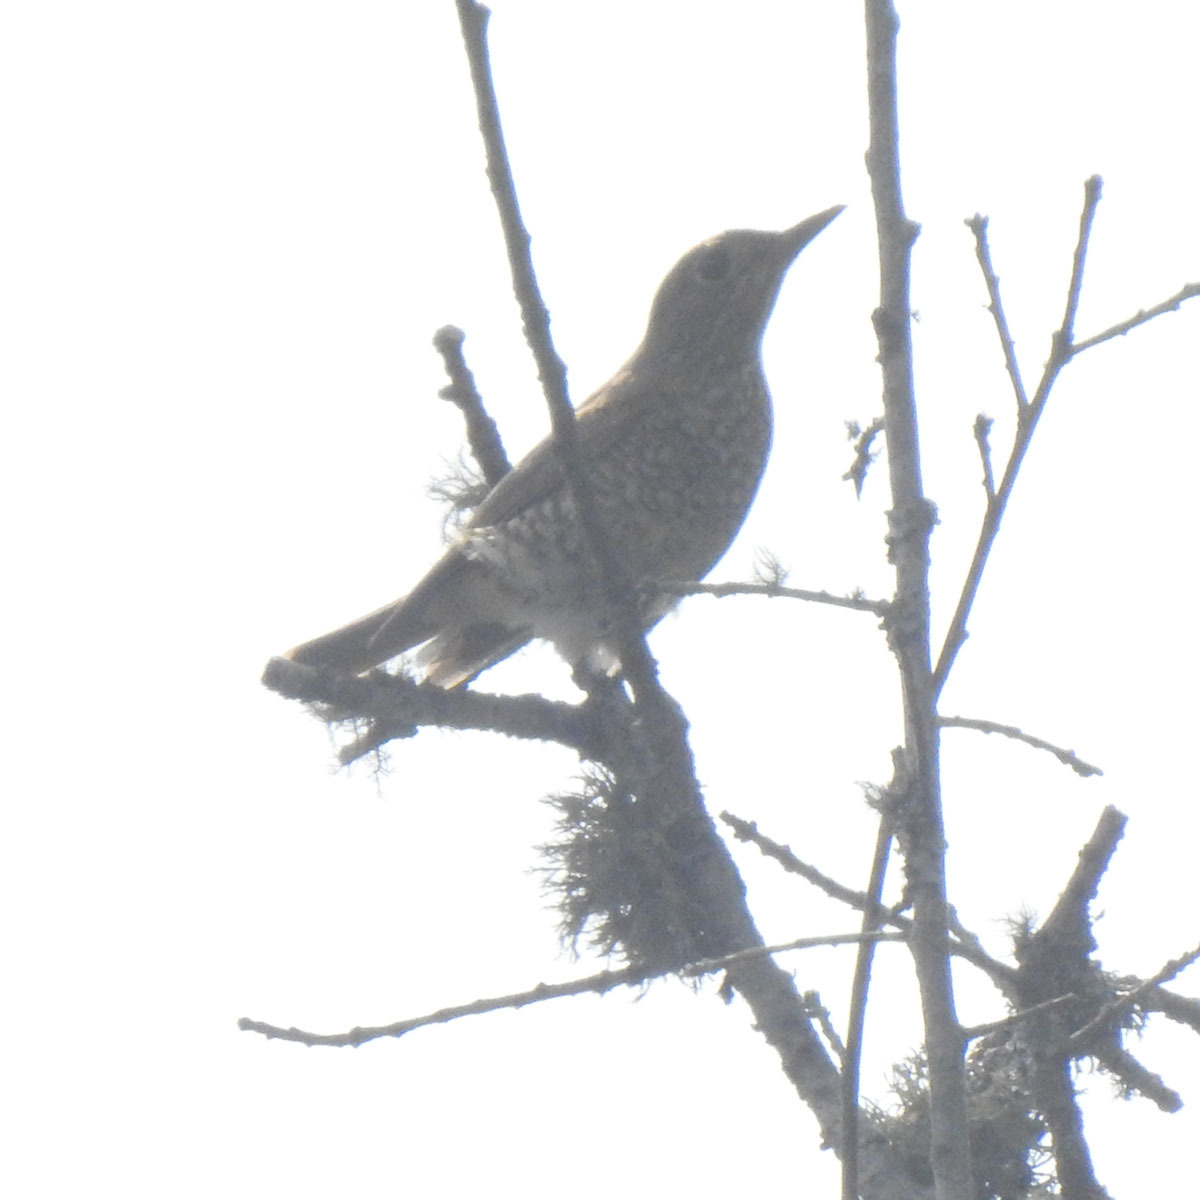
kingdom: Animalia
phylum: Chordata
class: Aves
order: Passeriformes
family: Muscicapidae
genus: Monticola
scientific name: Monticola cinclorhynchus
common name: Blue-capped rock thrush
